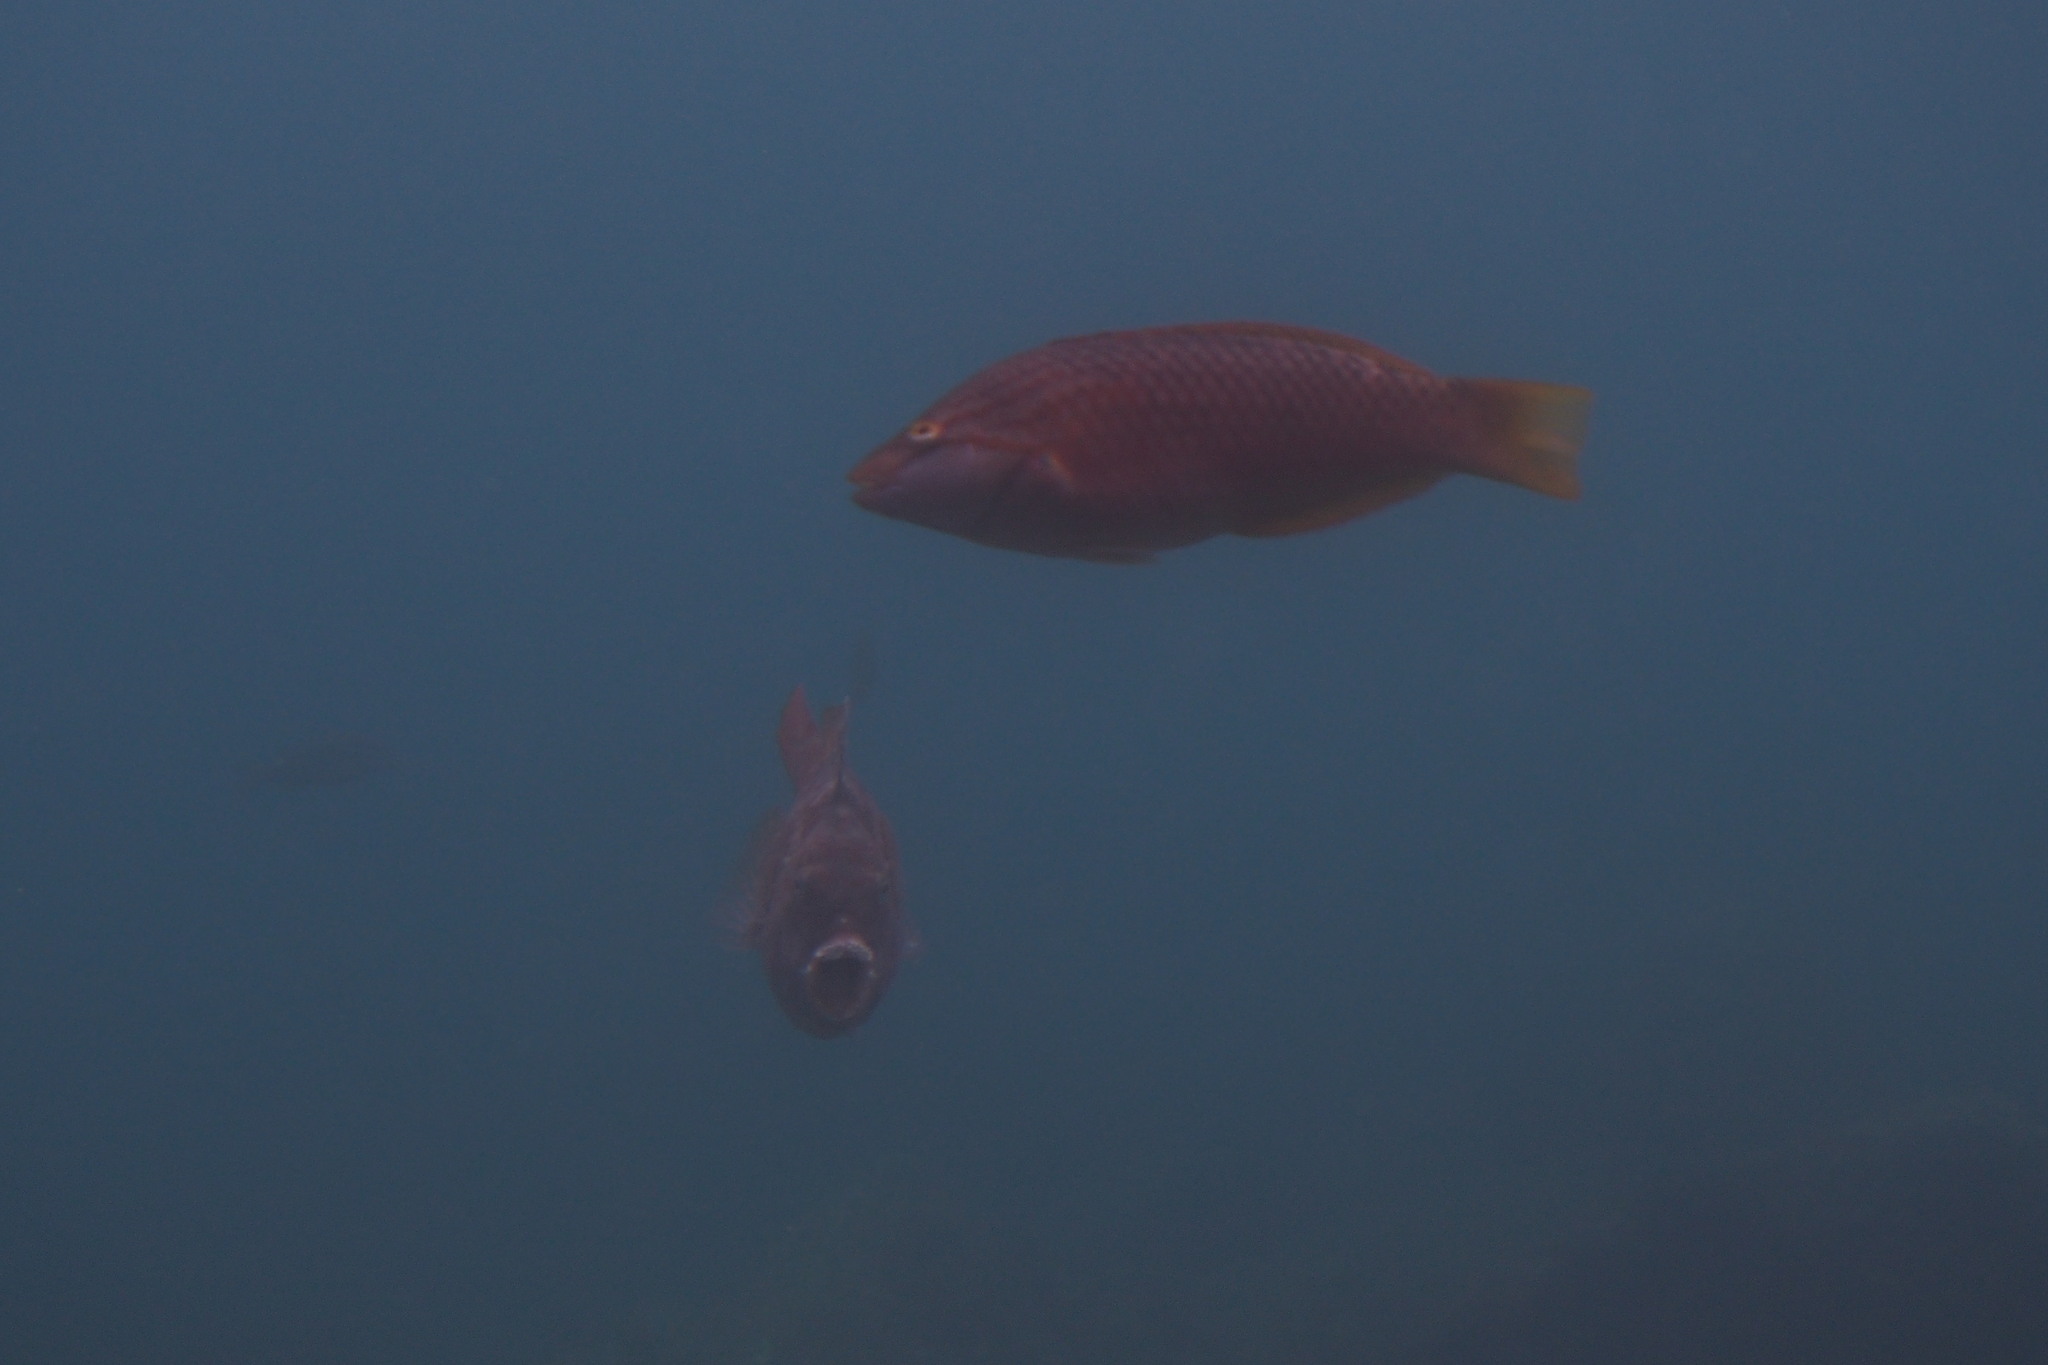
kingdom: Animalia
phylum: Chordata
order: Perciformes
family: Labridae
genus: Pseudolabrus
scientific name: Pseudolabrus eoethinus
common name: Red naped wrasse
